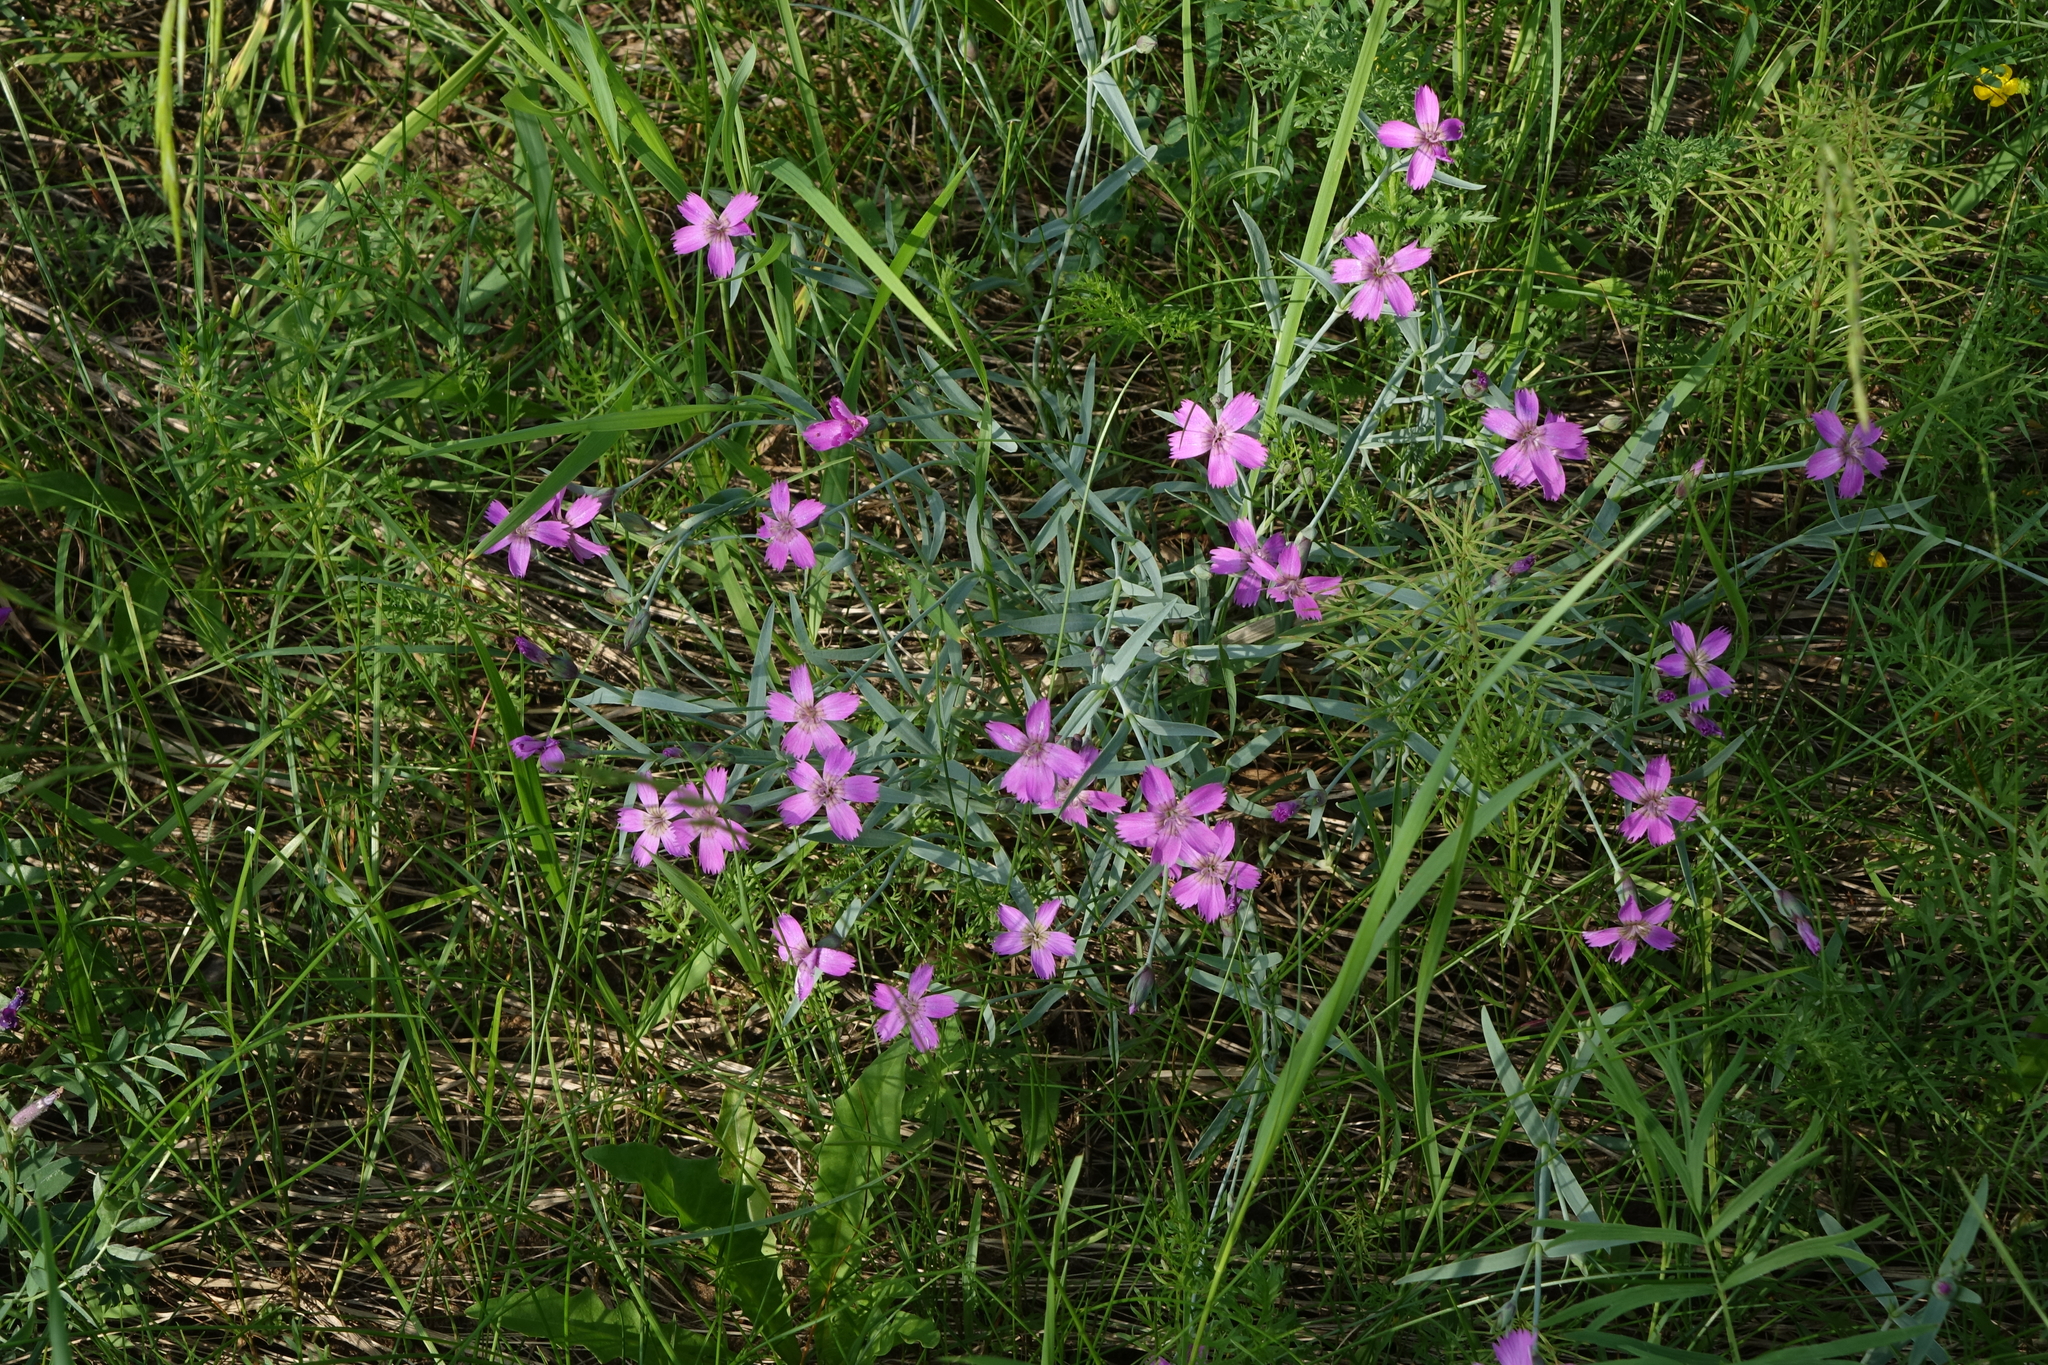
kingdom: Plantae
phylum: Tracheophyta
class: Magnoliopsida
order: Caryophyllales
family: Caryophyllaceae
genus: Dianthus
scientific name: Dianthus repens
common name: Northern pink
